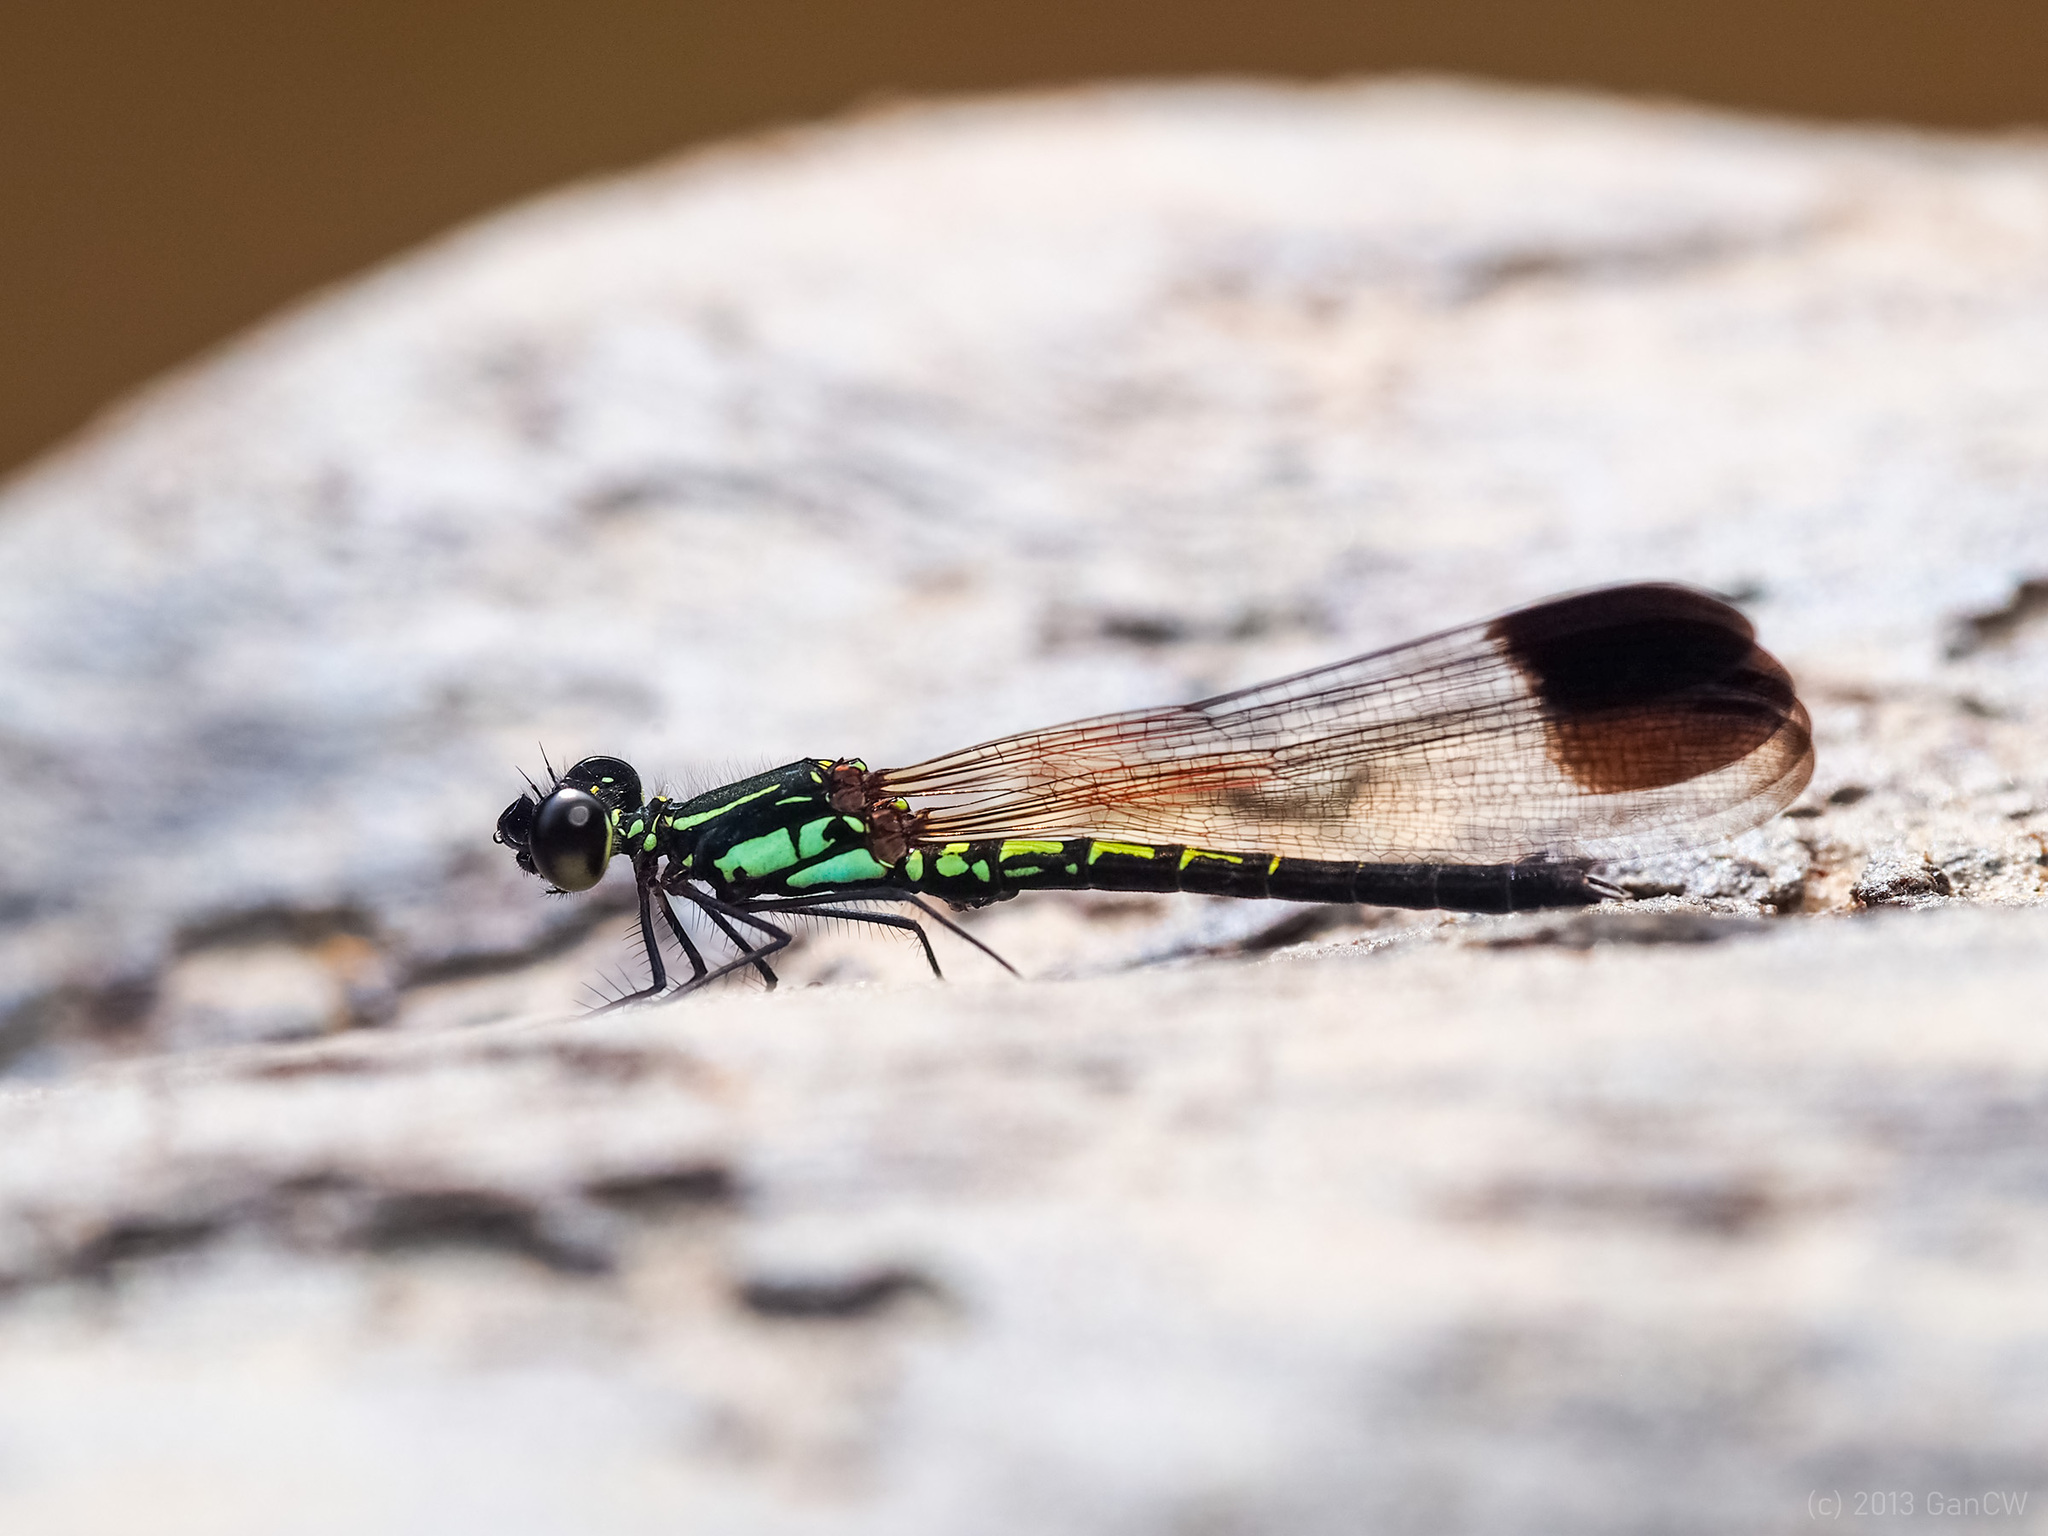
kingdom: Animalia
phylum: Arthropoda
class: Insecta
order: Odonata
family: Chlorocyphidae
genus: Libellago
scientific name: Libellago semiopaca
